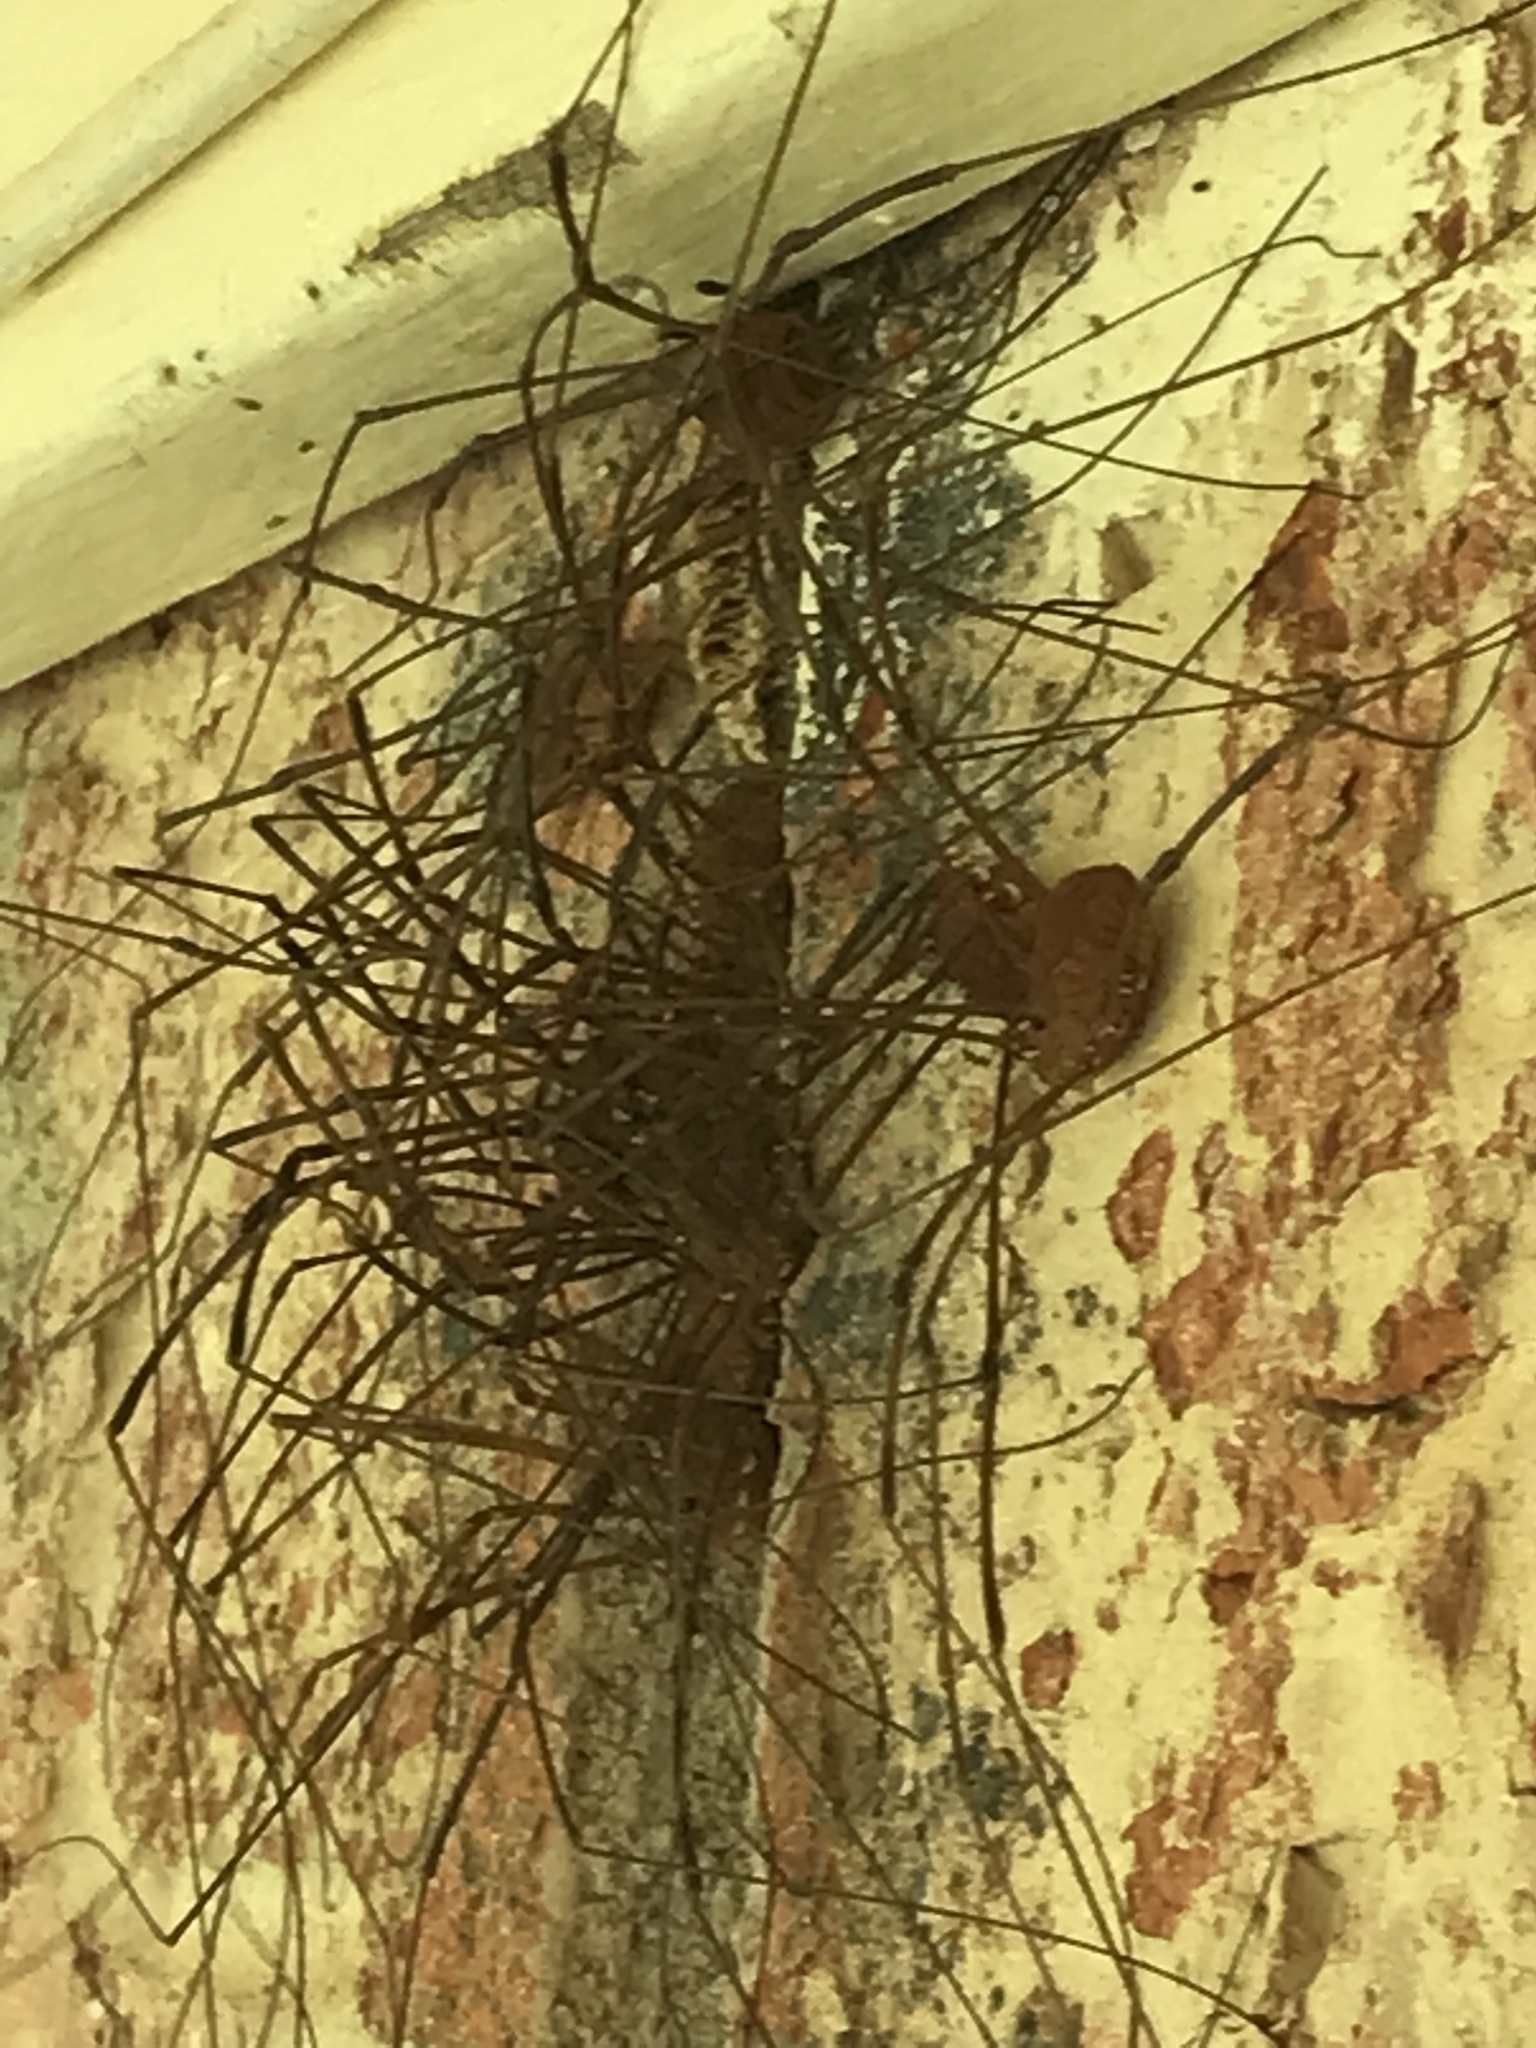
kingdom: Animalia
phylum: Arthropoda
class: Arachnida
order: Opiliones
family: Sclerosomatidae
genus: Leiobunum
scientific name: Leiobunum flavum
